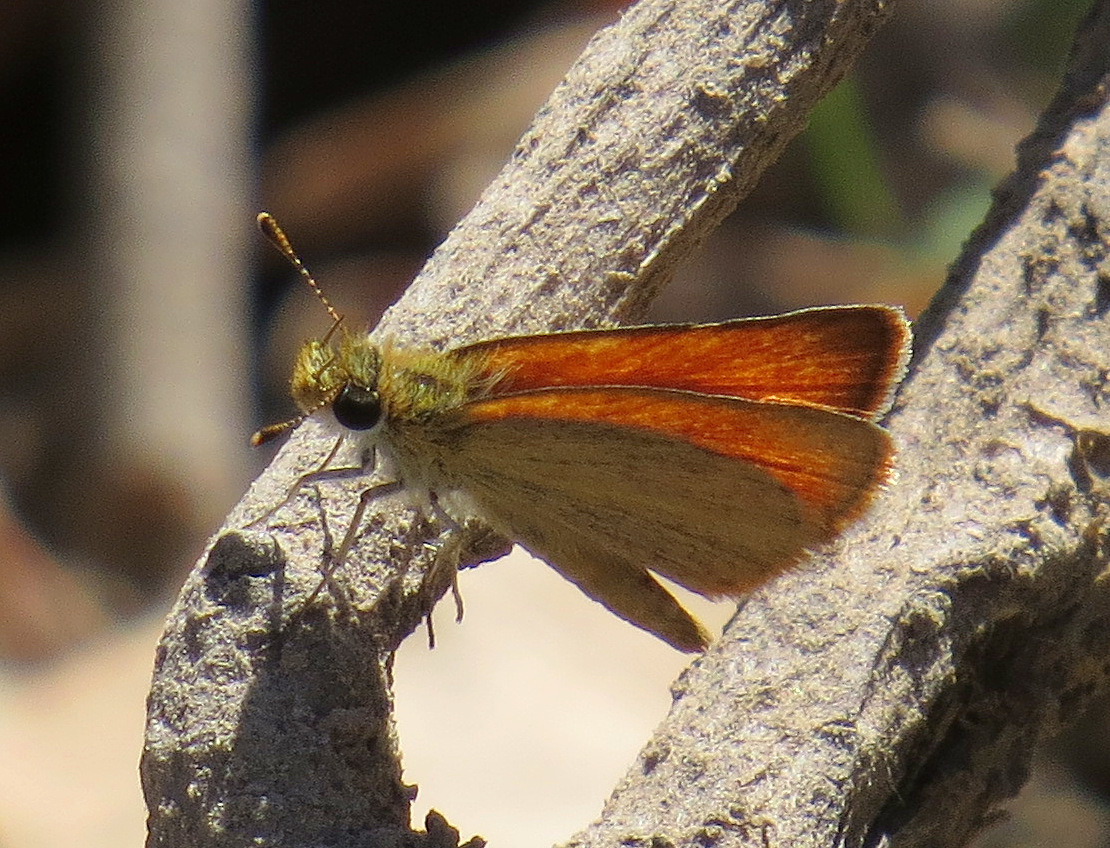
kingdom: Animalia
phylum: Arthropoda
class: Insecta
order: Lepidoptera
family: Hesperiidae
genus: Ancyloxypha
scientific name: Ancyloxypha arene
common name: Tropical least skipper
